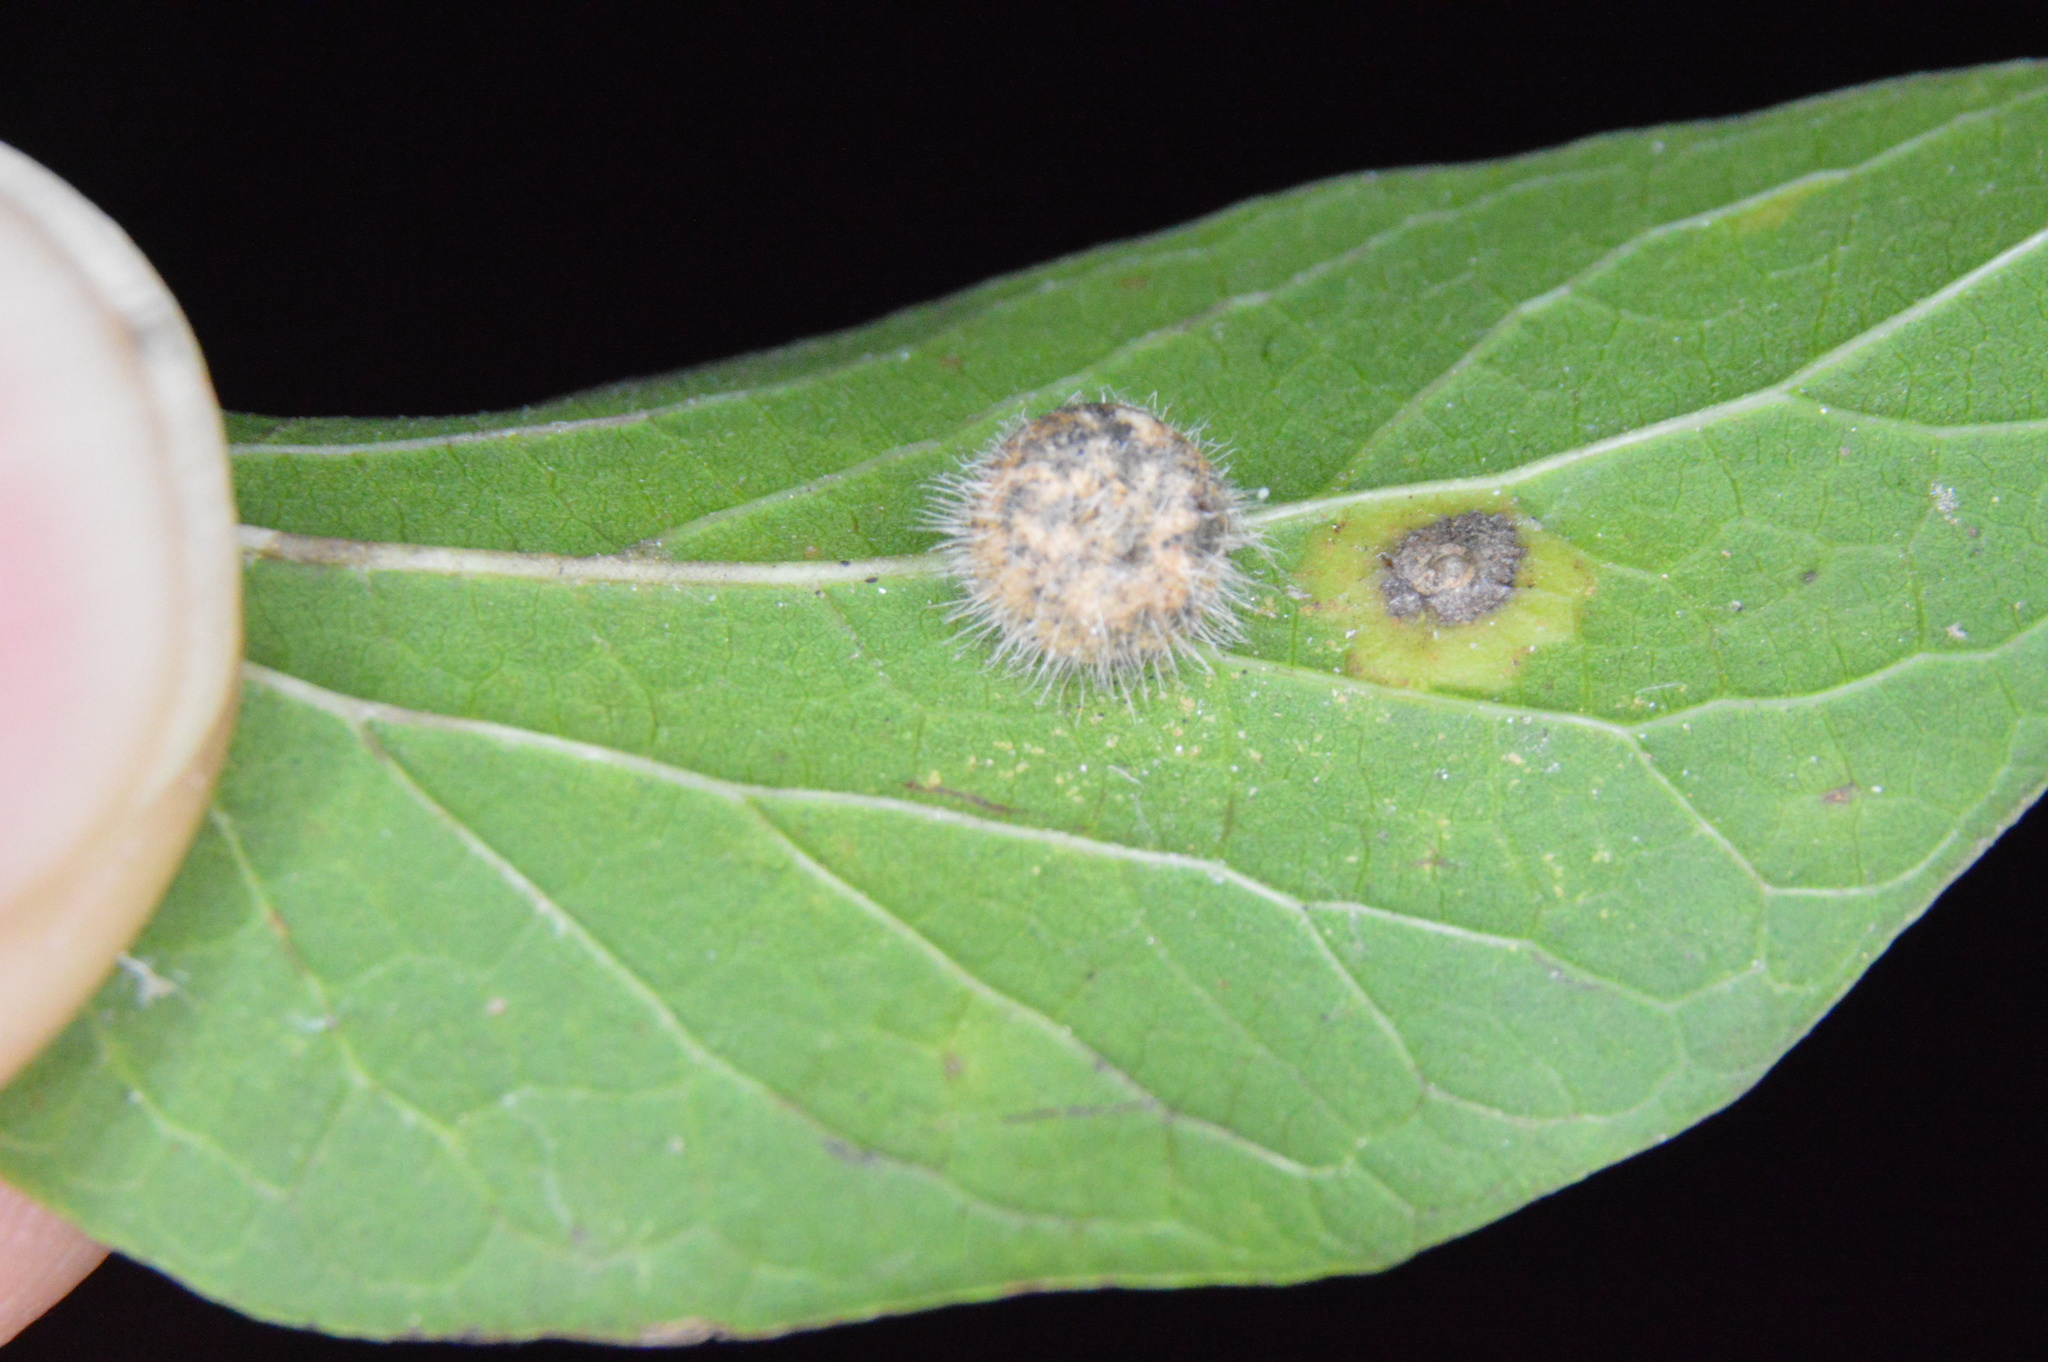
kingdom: Animalia
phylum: Arthropoda
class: Insecta
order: Diptera
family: Cecidomyiidae
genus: Celticecis
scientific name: Celticecis pubescens
